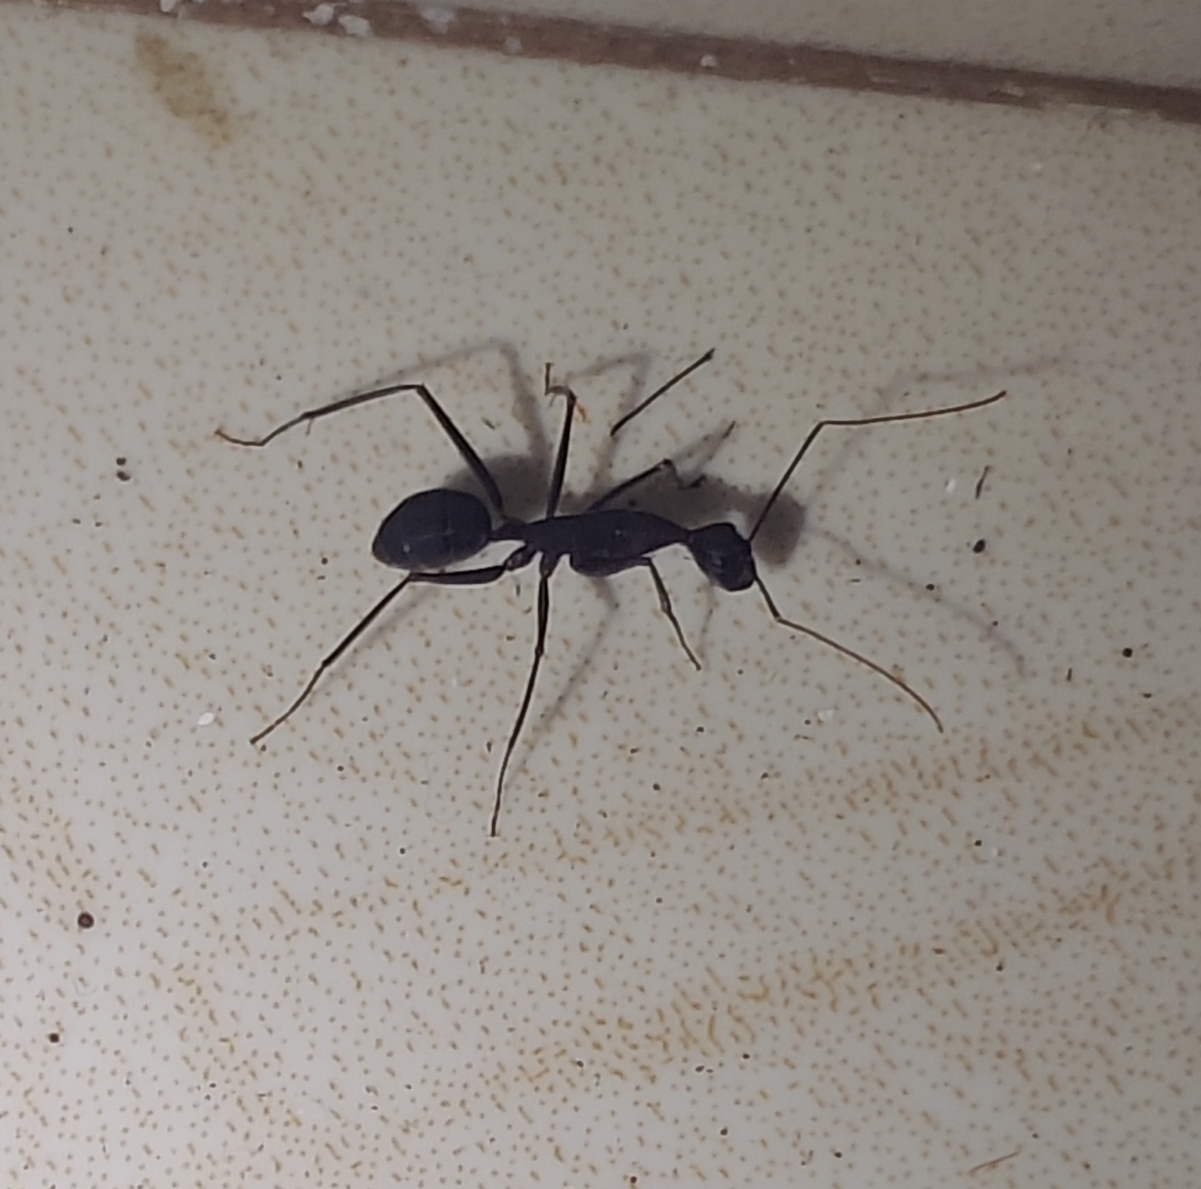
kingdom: Animalia
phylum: Arthropoda
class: Insecta
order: Hymenoptera
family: Formicidae
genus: Camponotus
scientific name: Camponotus angusticollis
